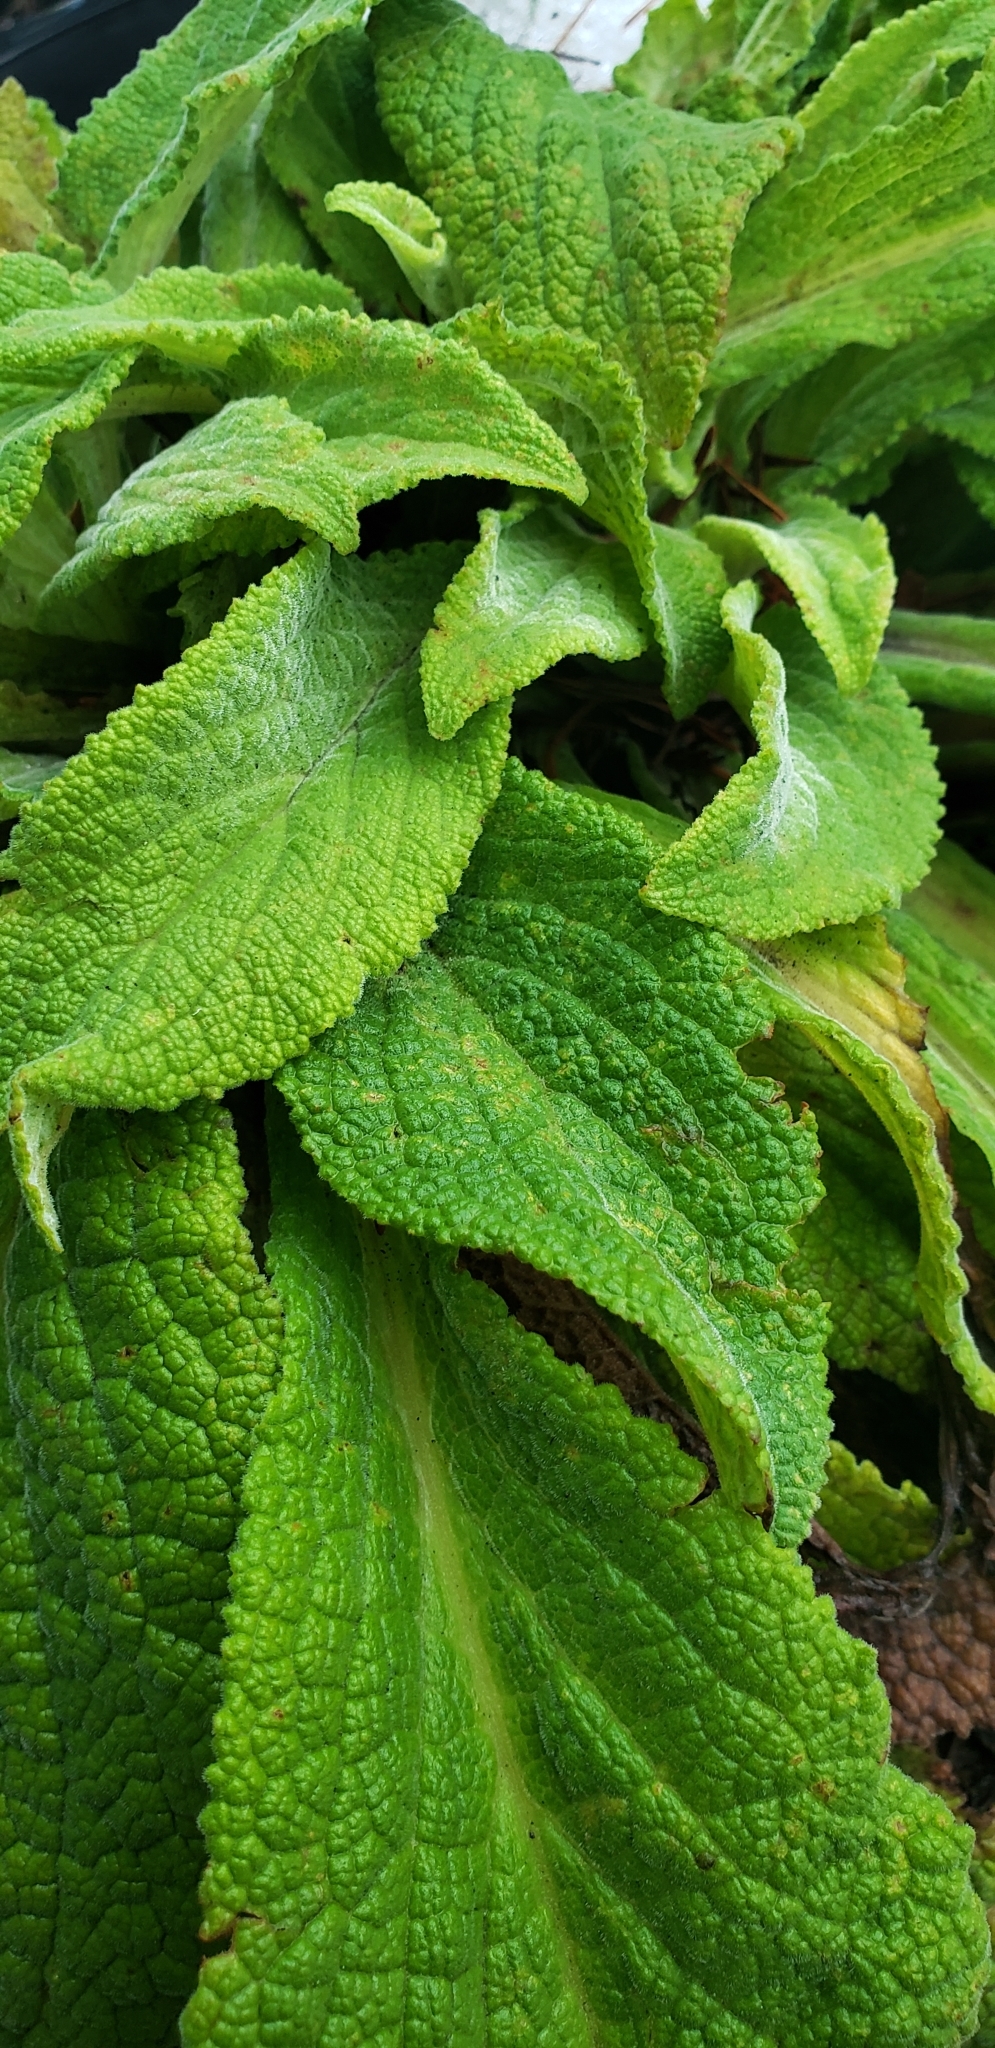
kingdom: Plantae
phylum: Tracheophyta
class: Magnoliopsida
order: Lamiales
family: Plantaginaceae
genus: Digitalis
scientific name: Digitalis purpurea
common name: Foxglove
